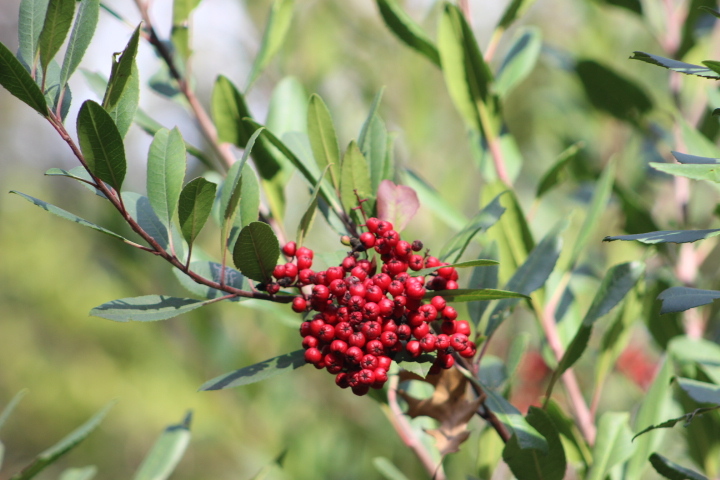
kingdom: Plantae
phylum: Tracheophyta
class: Magnoliopsida
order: Rosales
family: Rosaceae
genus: Heteromeles
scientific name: Heteromeles arbutifolia
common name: California-holly
